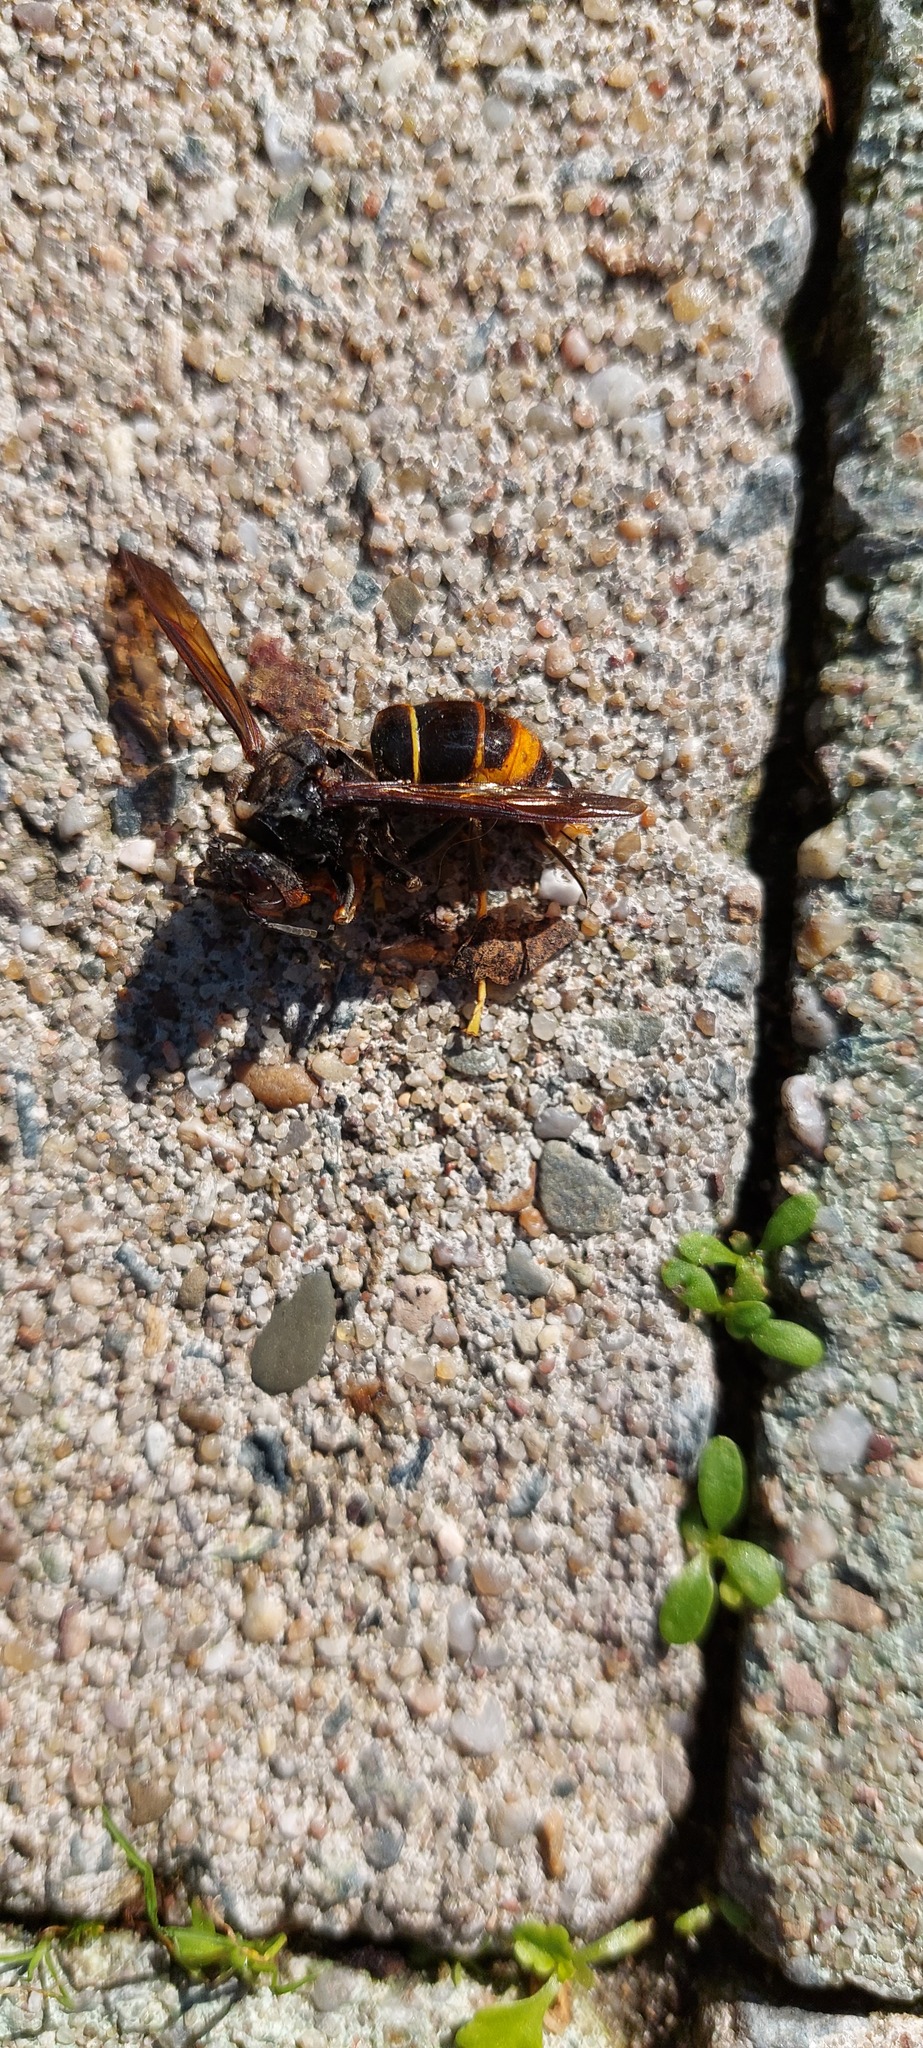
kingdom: Animalia
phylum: Arthropoda
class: Insecta
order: Hymenoptera
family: Vespidae
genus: Vespa
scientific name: Vespa velutina
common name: Asian hornet
